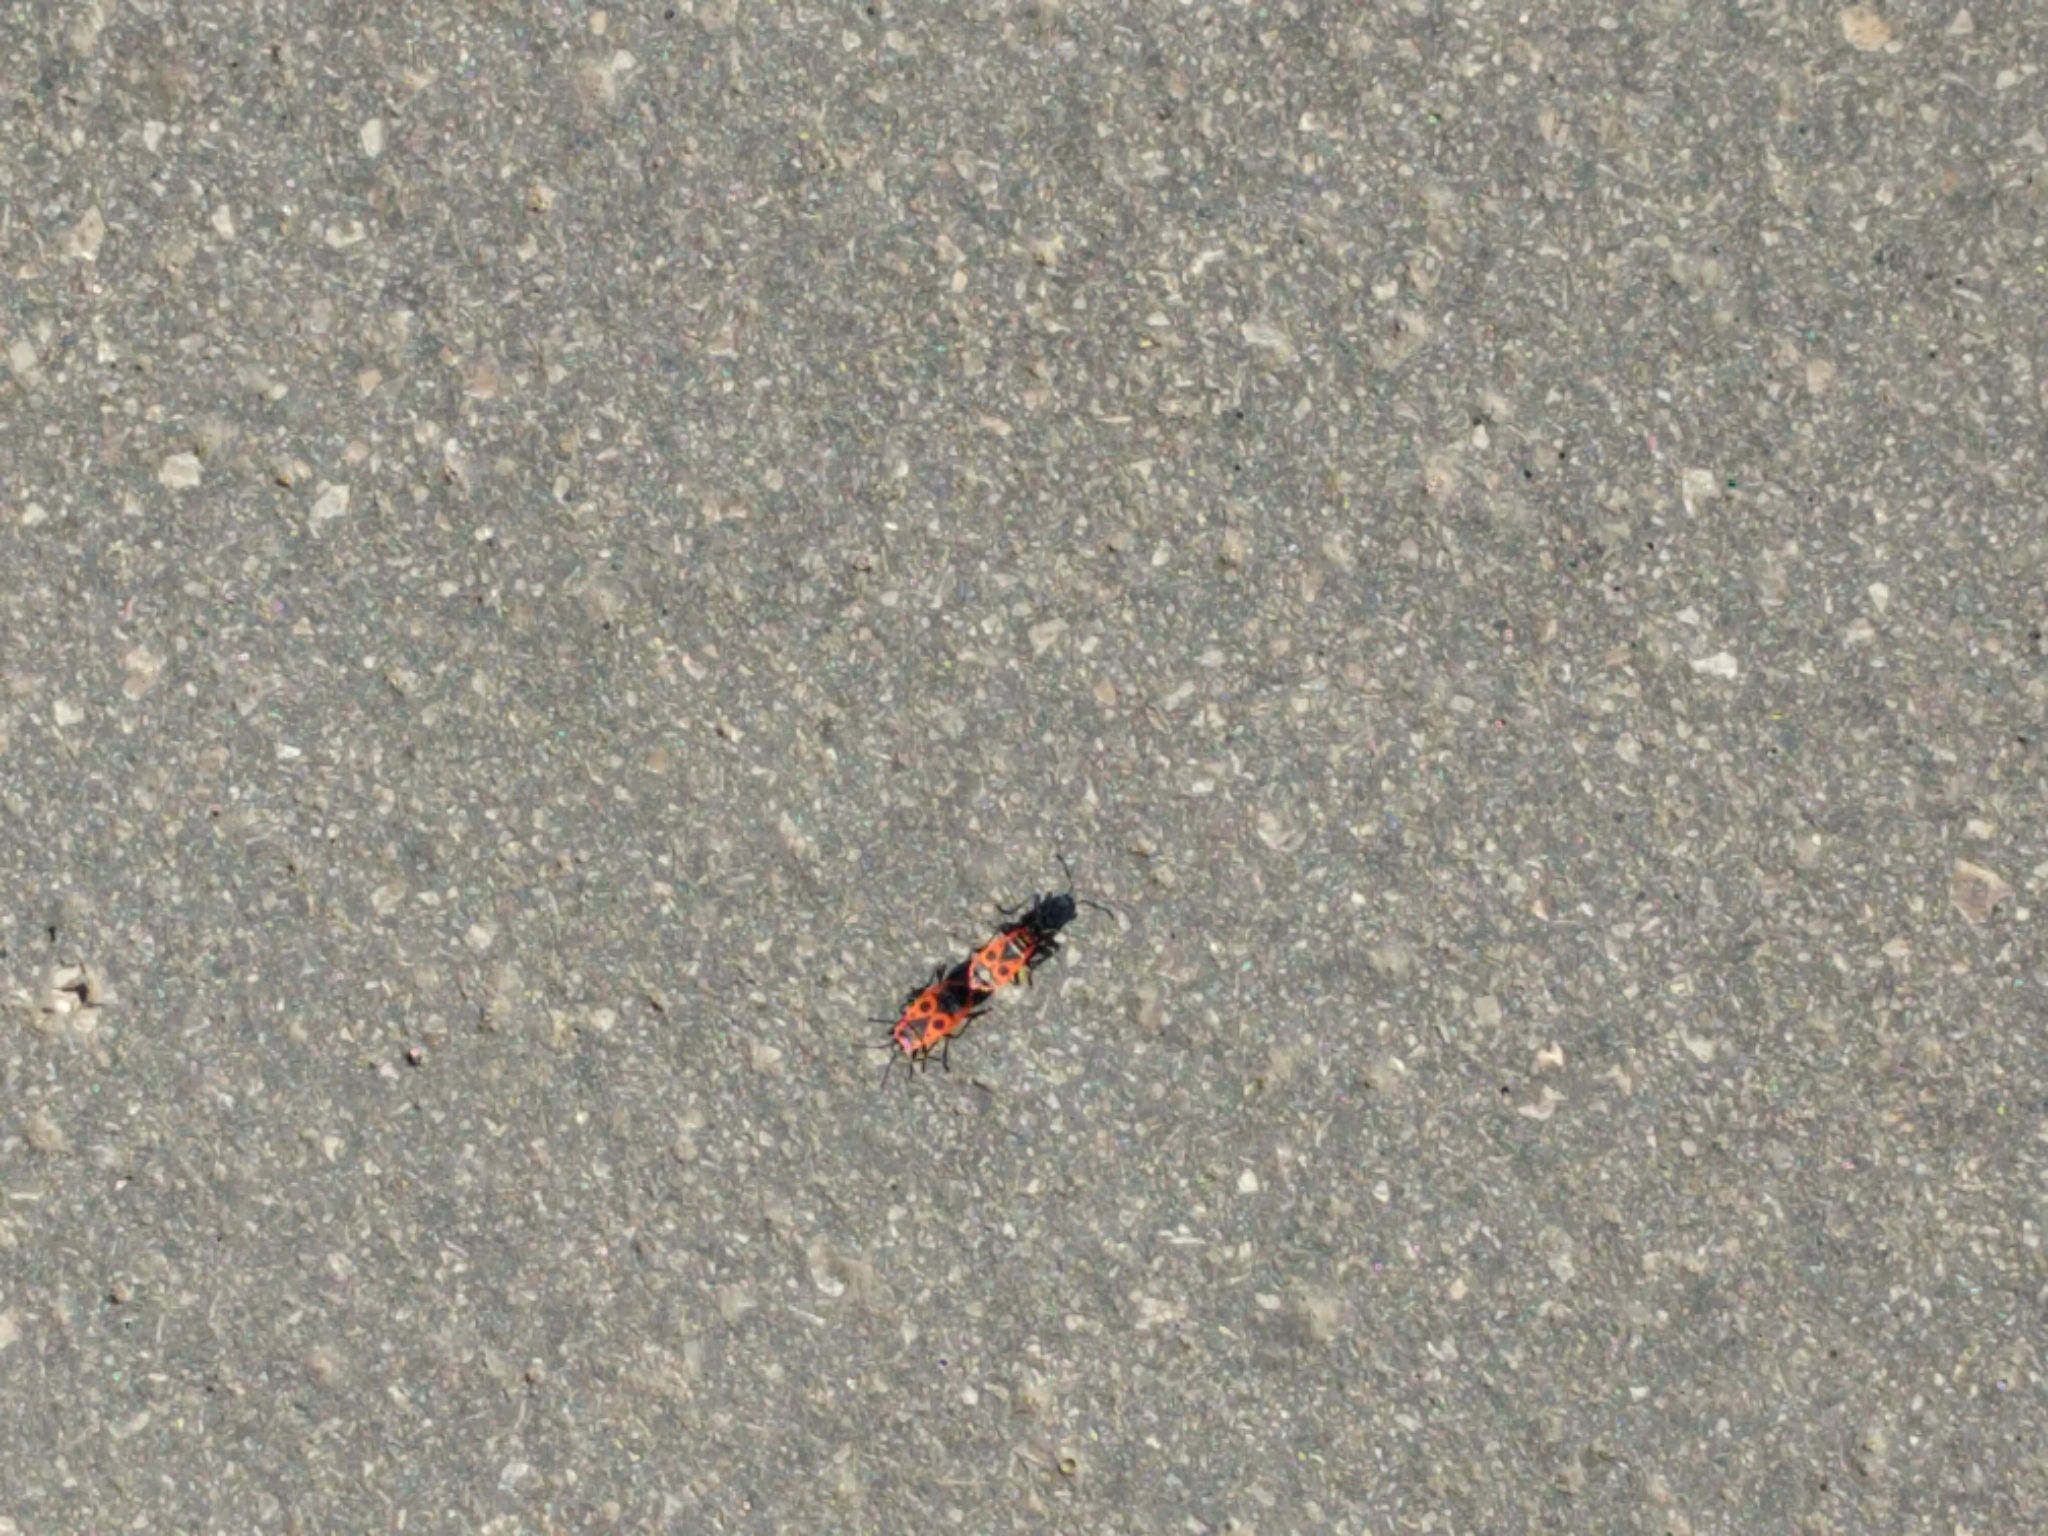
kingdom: Animalia
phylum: Arthropoda
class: Insecta
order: Hemiptera
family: Pyrrhocoridae
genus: Pyrrhocoris
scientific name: Pyrrhocoris apterus
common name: Firebug
